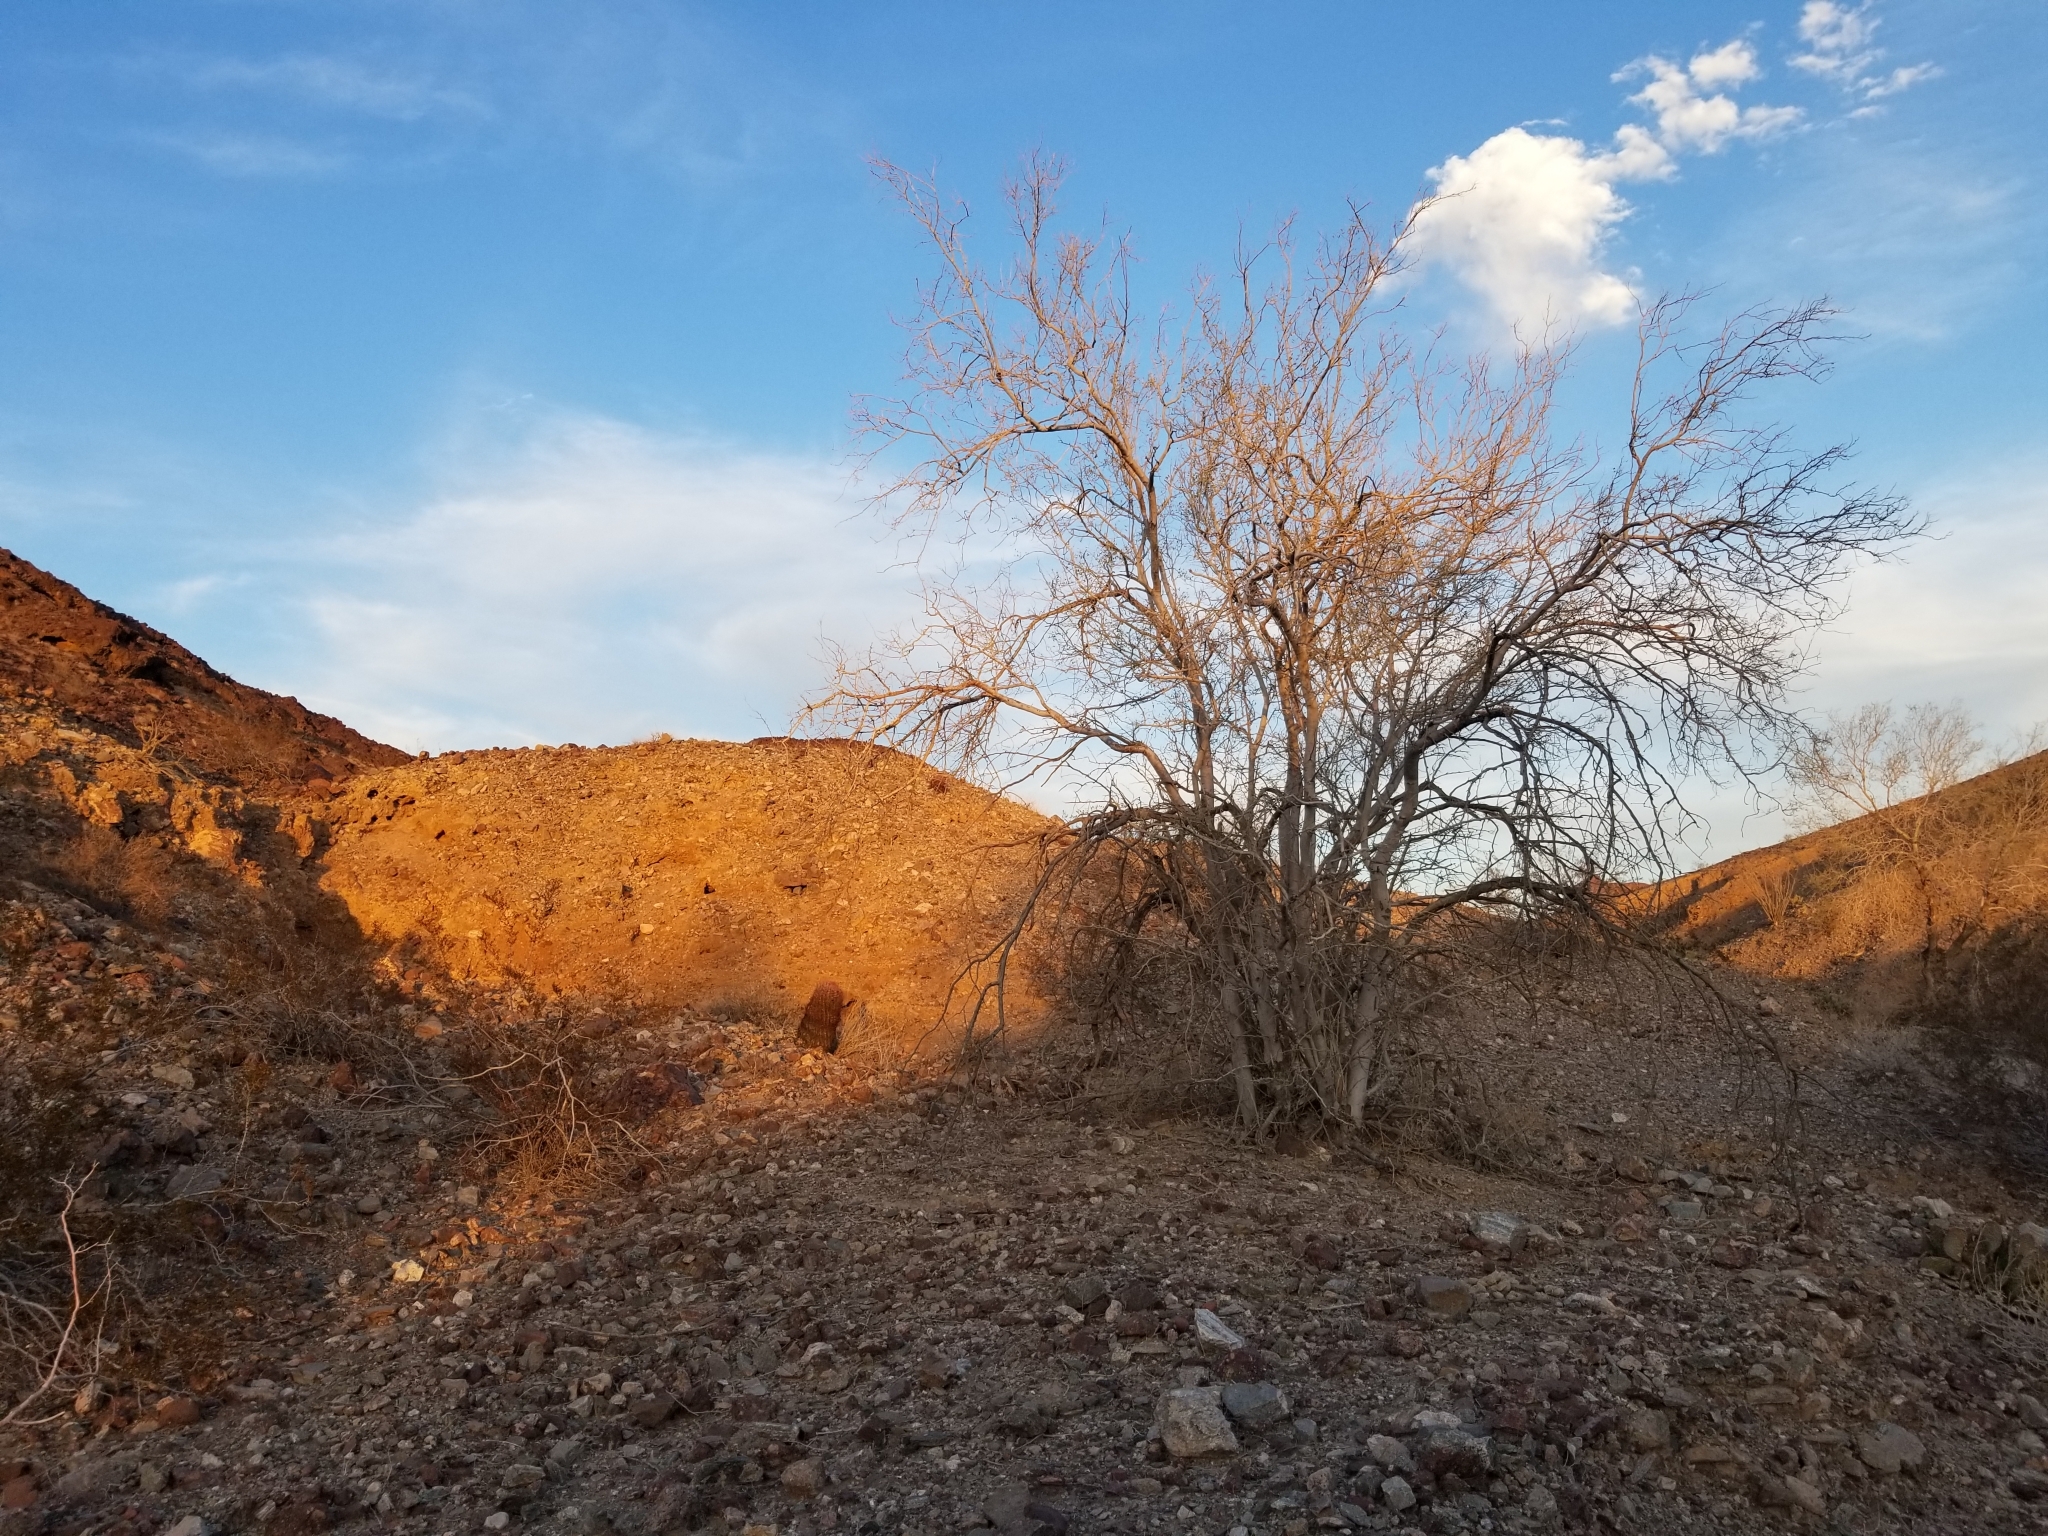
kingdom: Plantae
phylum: Tracheophyta
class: Magnoliopsida
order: Fabales
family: Fabaceae
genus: Olneya
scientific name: Olneya tesota
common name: Desert ironwood
